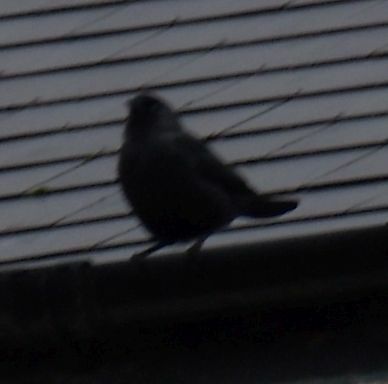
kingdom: Animalia
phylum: Chordata
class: Aves
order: Passeriformes
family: Corvidae
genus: Coloeus
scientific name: Coloeus monedula
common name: Western jackdaw
